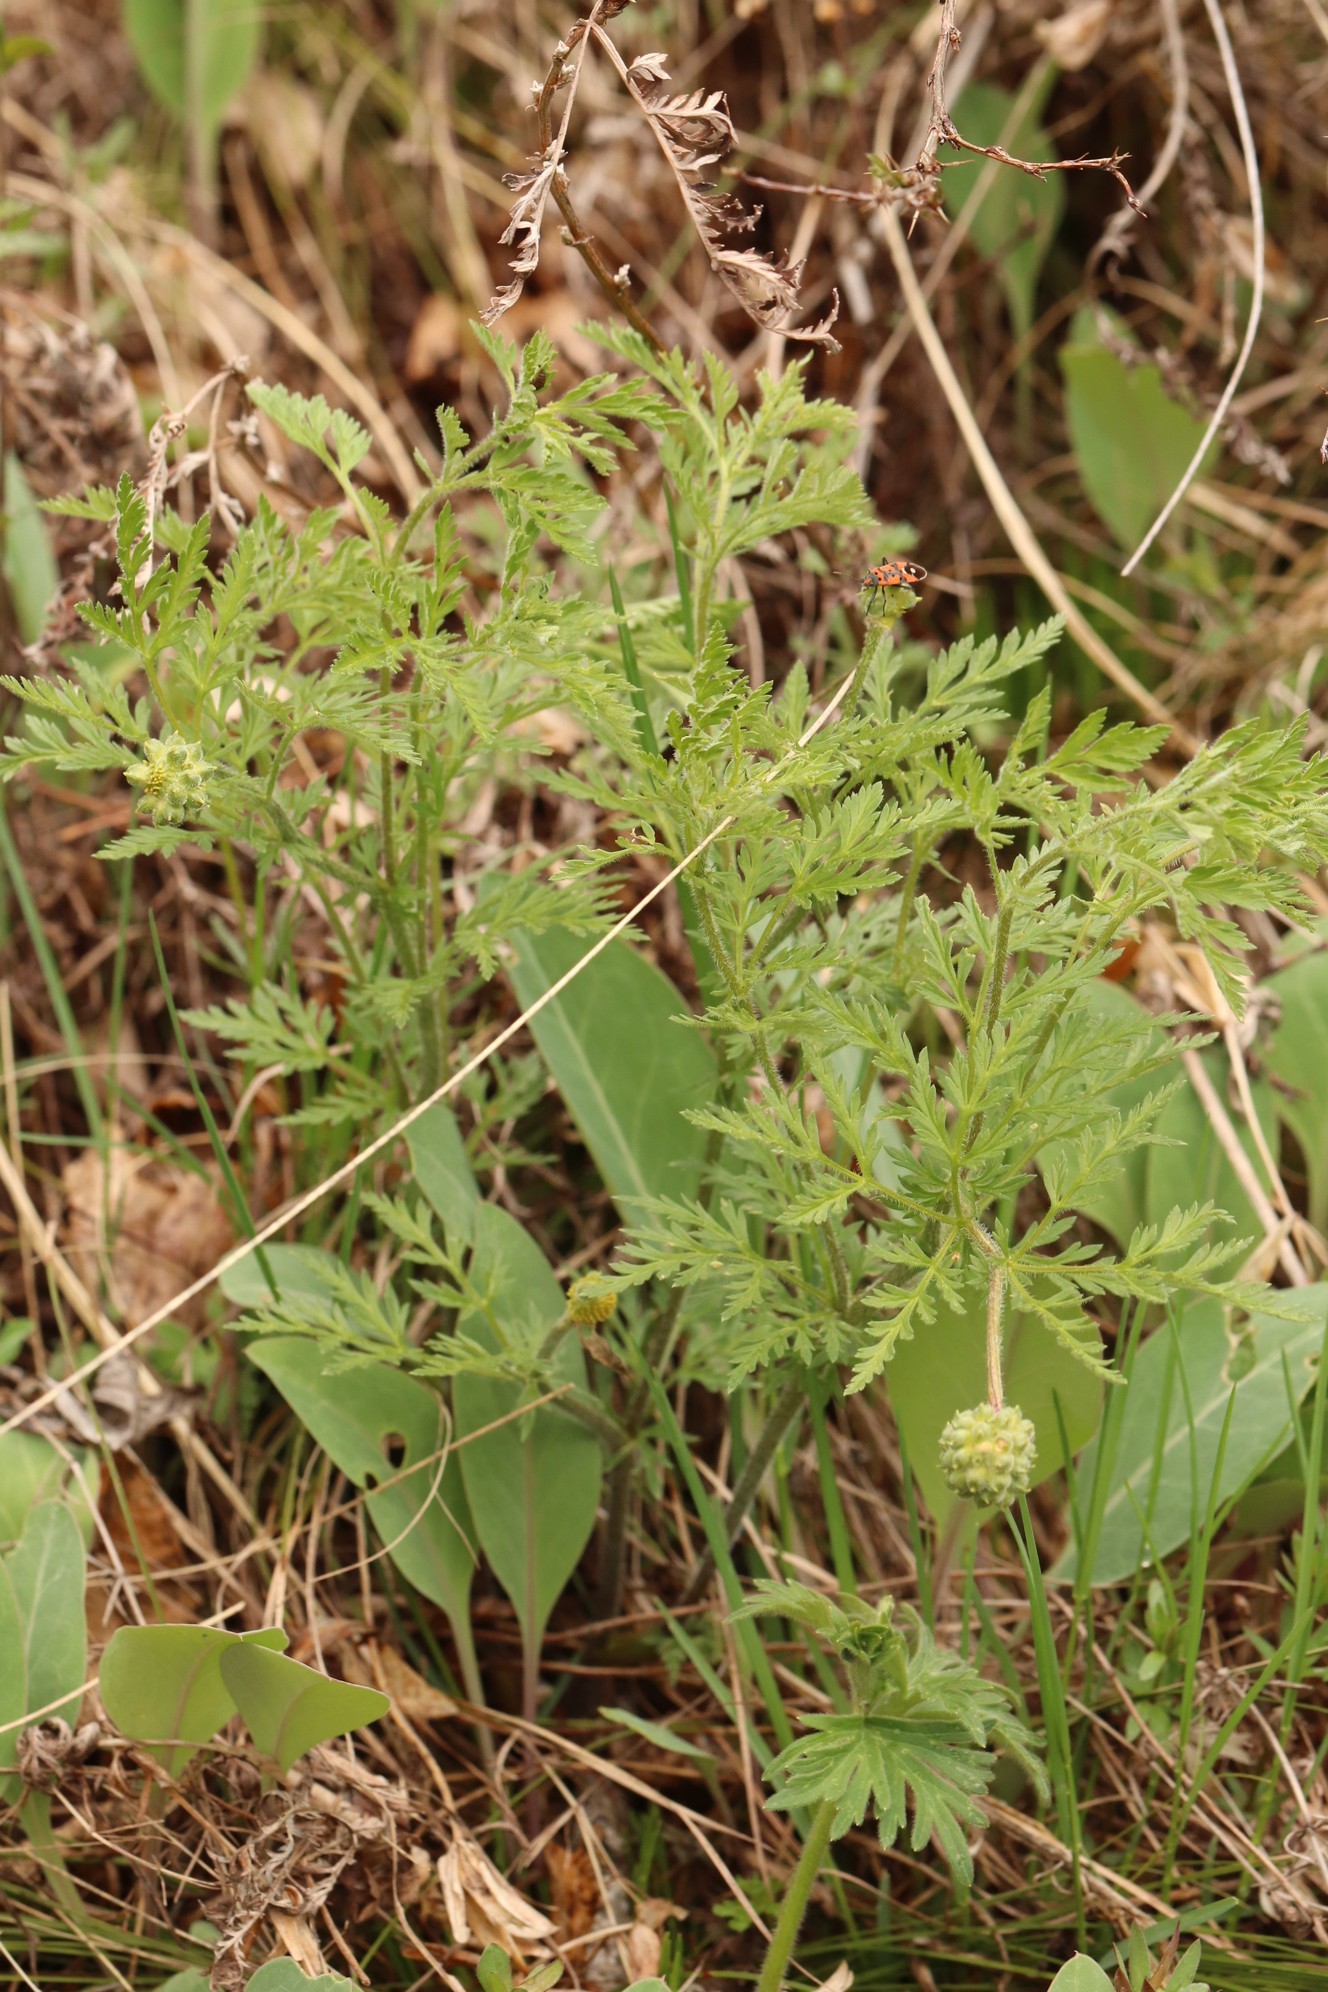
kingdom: Plantae
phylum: Tracheophyta
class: Magnoliopsida
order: Ranunculales
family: Ranunculaceae
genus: Adonis
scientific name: Adonis villosa
